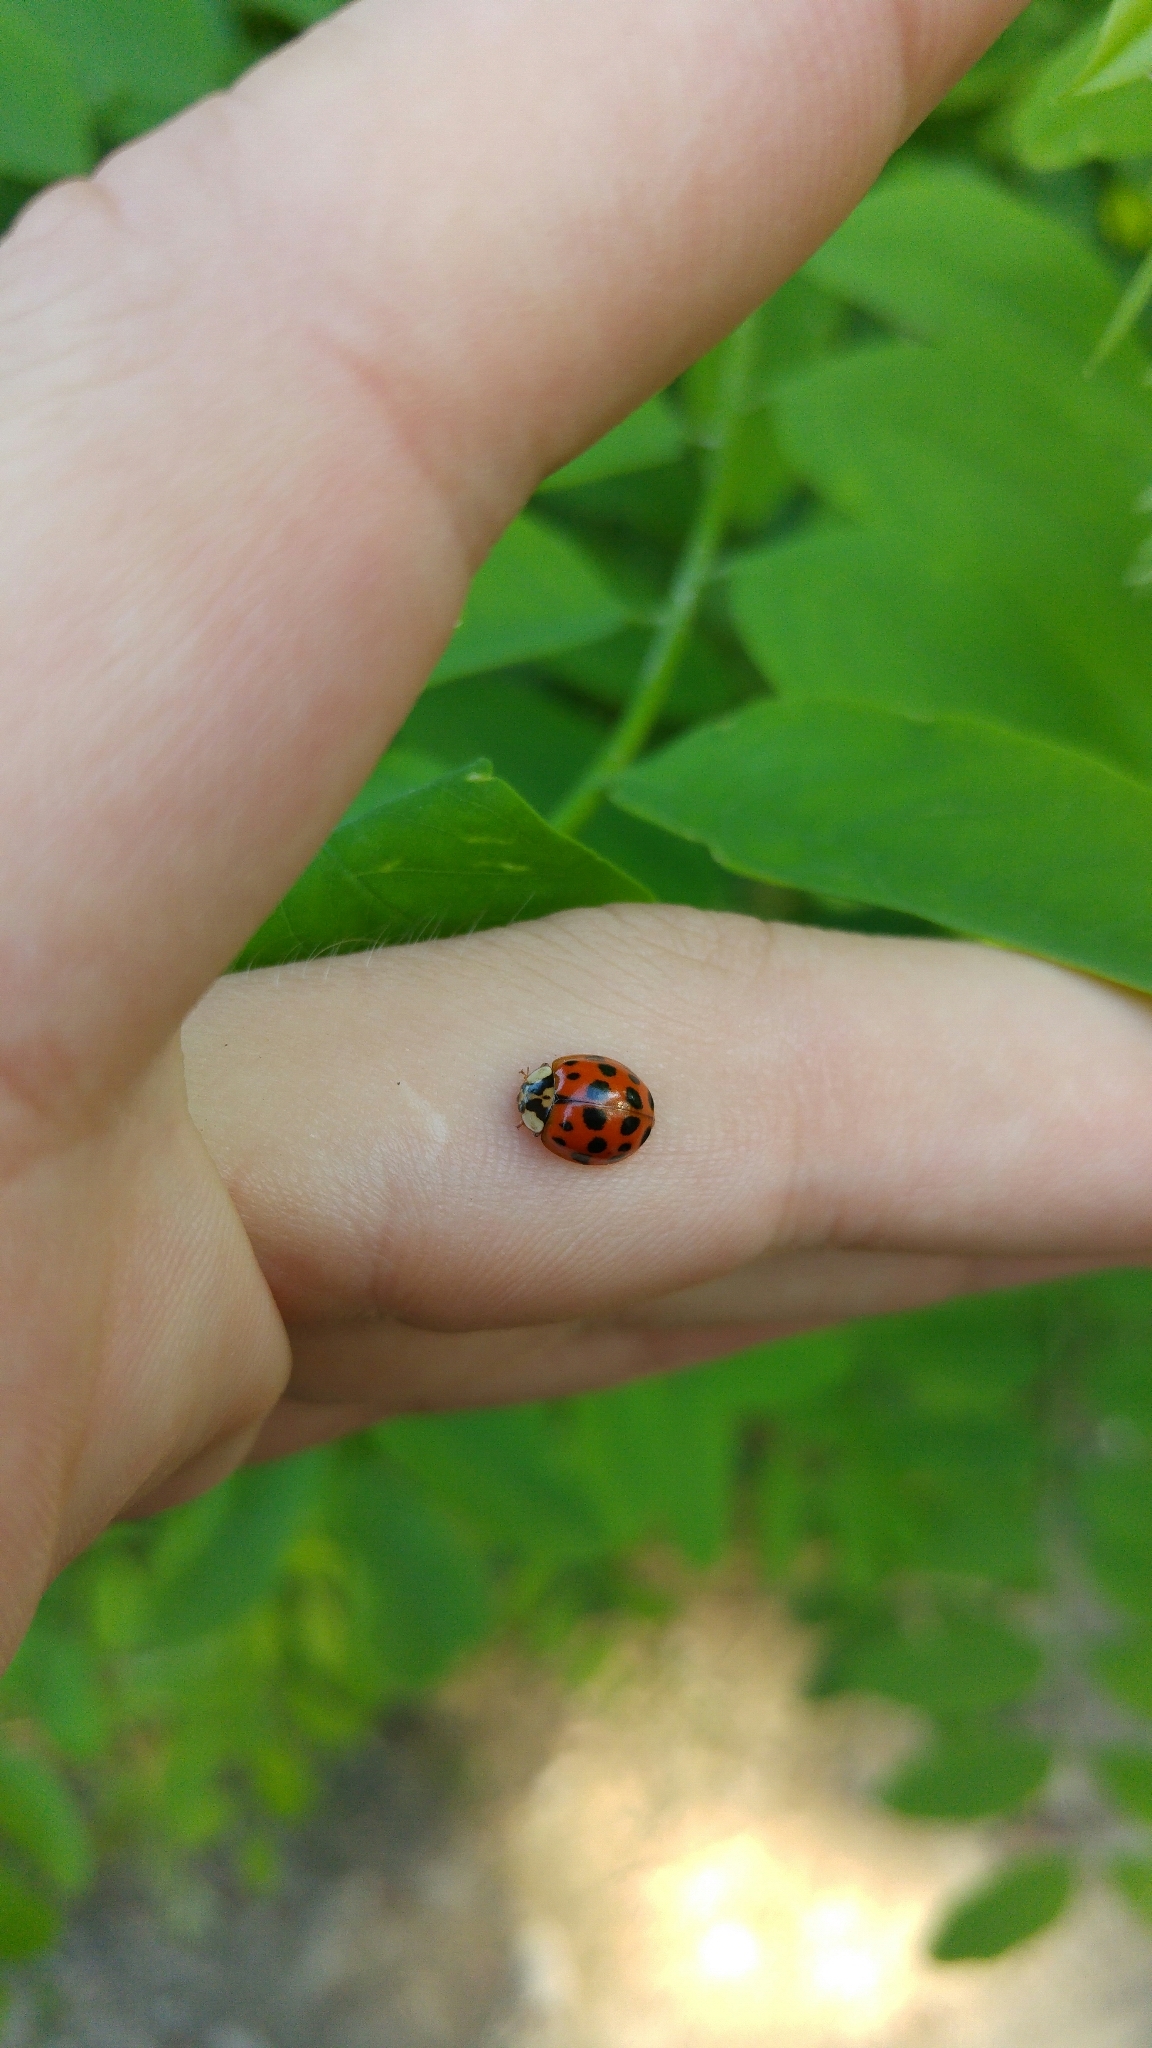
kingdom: Animalia
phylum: Arthropoda
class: Insecta
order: Coleoptera
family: Coccinellidae
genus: Harmonia
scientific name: Harmonia axyridis
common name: Harlequin ladybird
